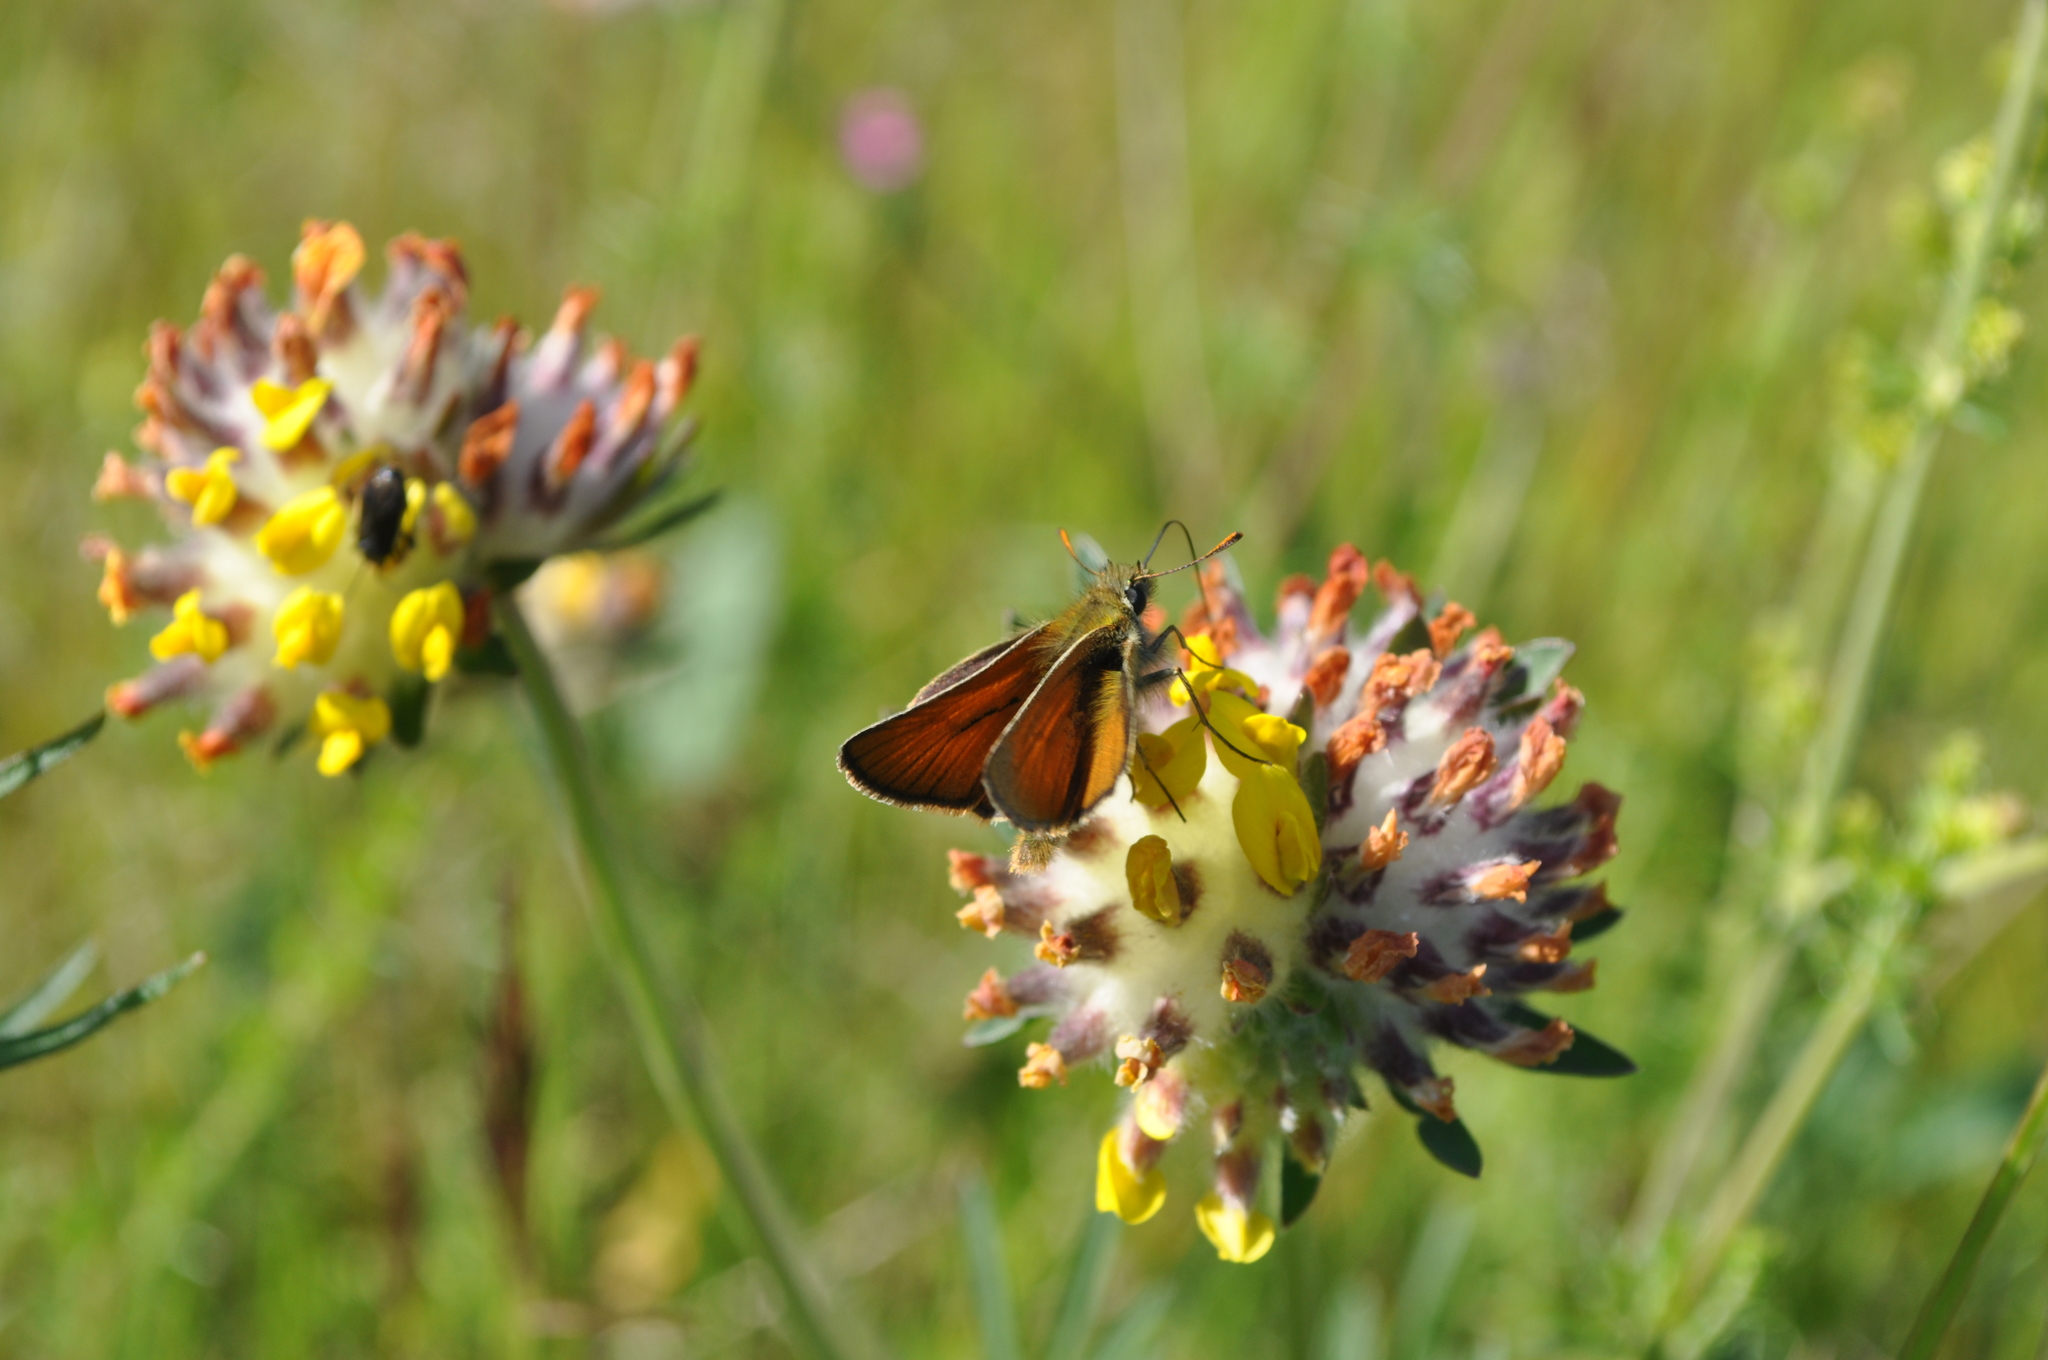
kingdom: Animalia
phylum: Arthropoda
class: Insecta
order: Lepidoptera
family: Hesperiidae
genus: Thymelicus
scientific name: Thymelicus sylvestris
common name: Small skipper
